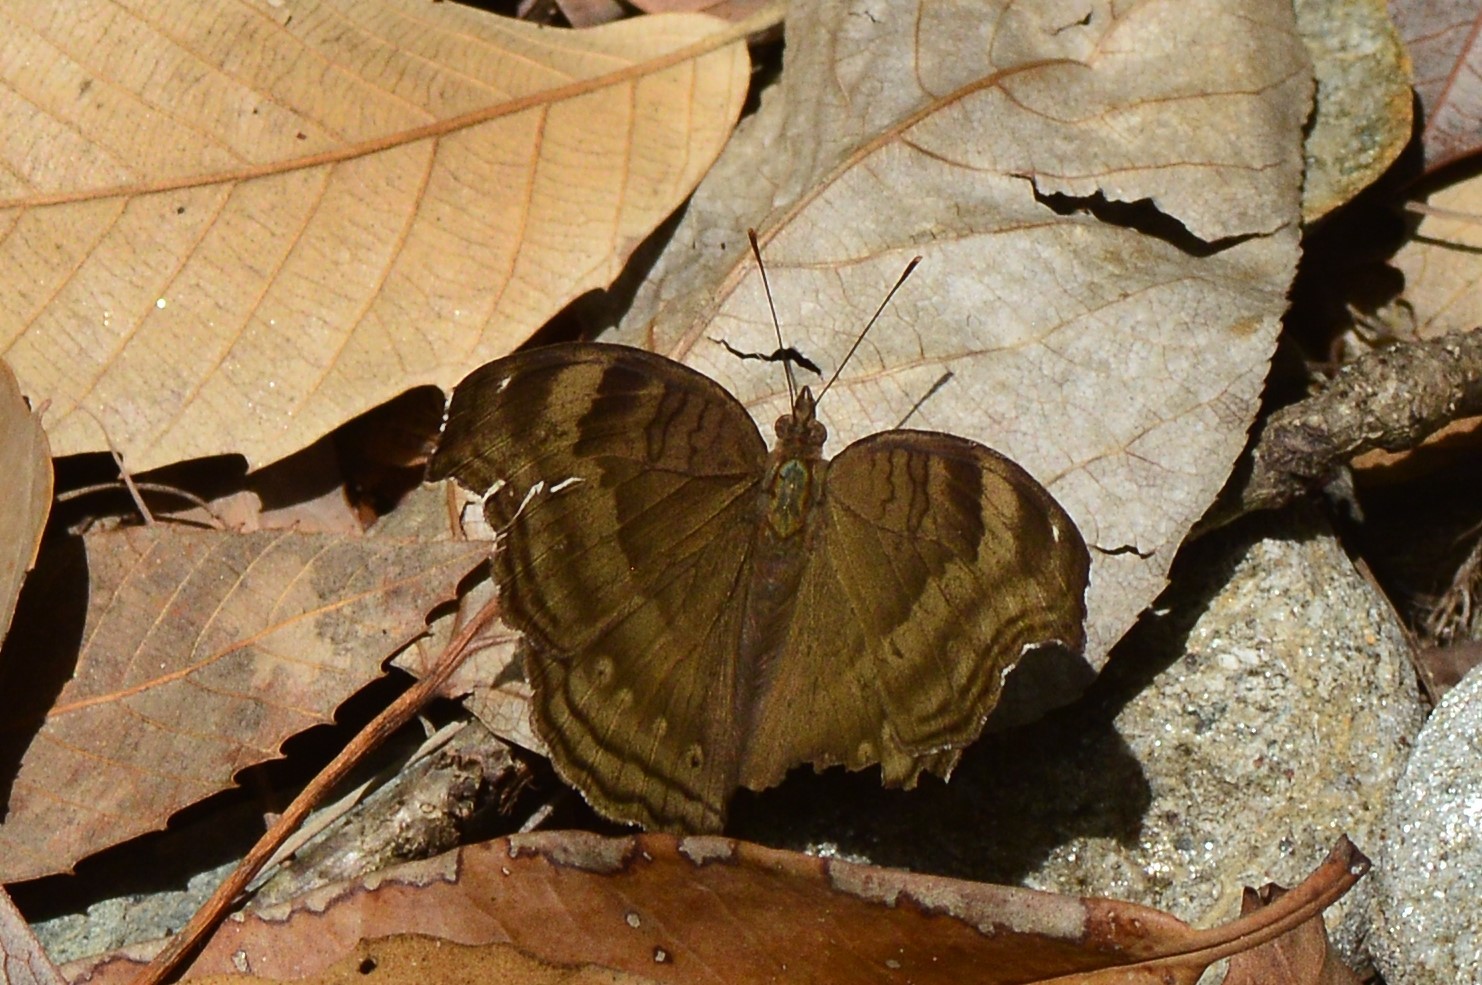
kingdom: Animalia
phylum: Arthropoda
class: Insecta
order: Lepidoptera
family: Nymphalidae
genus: Junonia
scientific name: Junonia iphita
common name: Chocolate pansy
